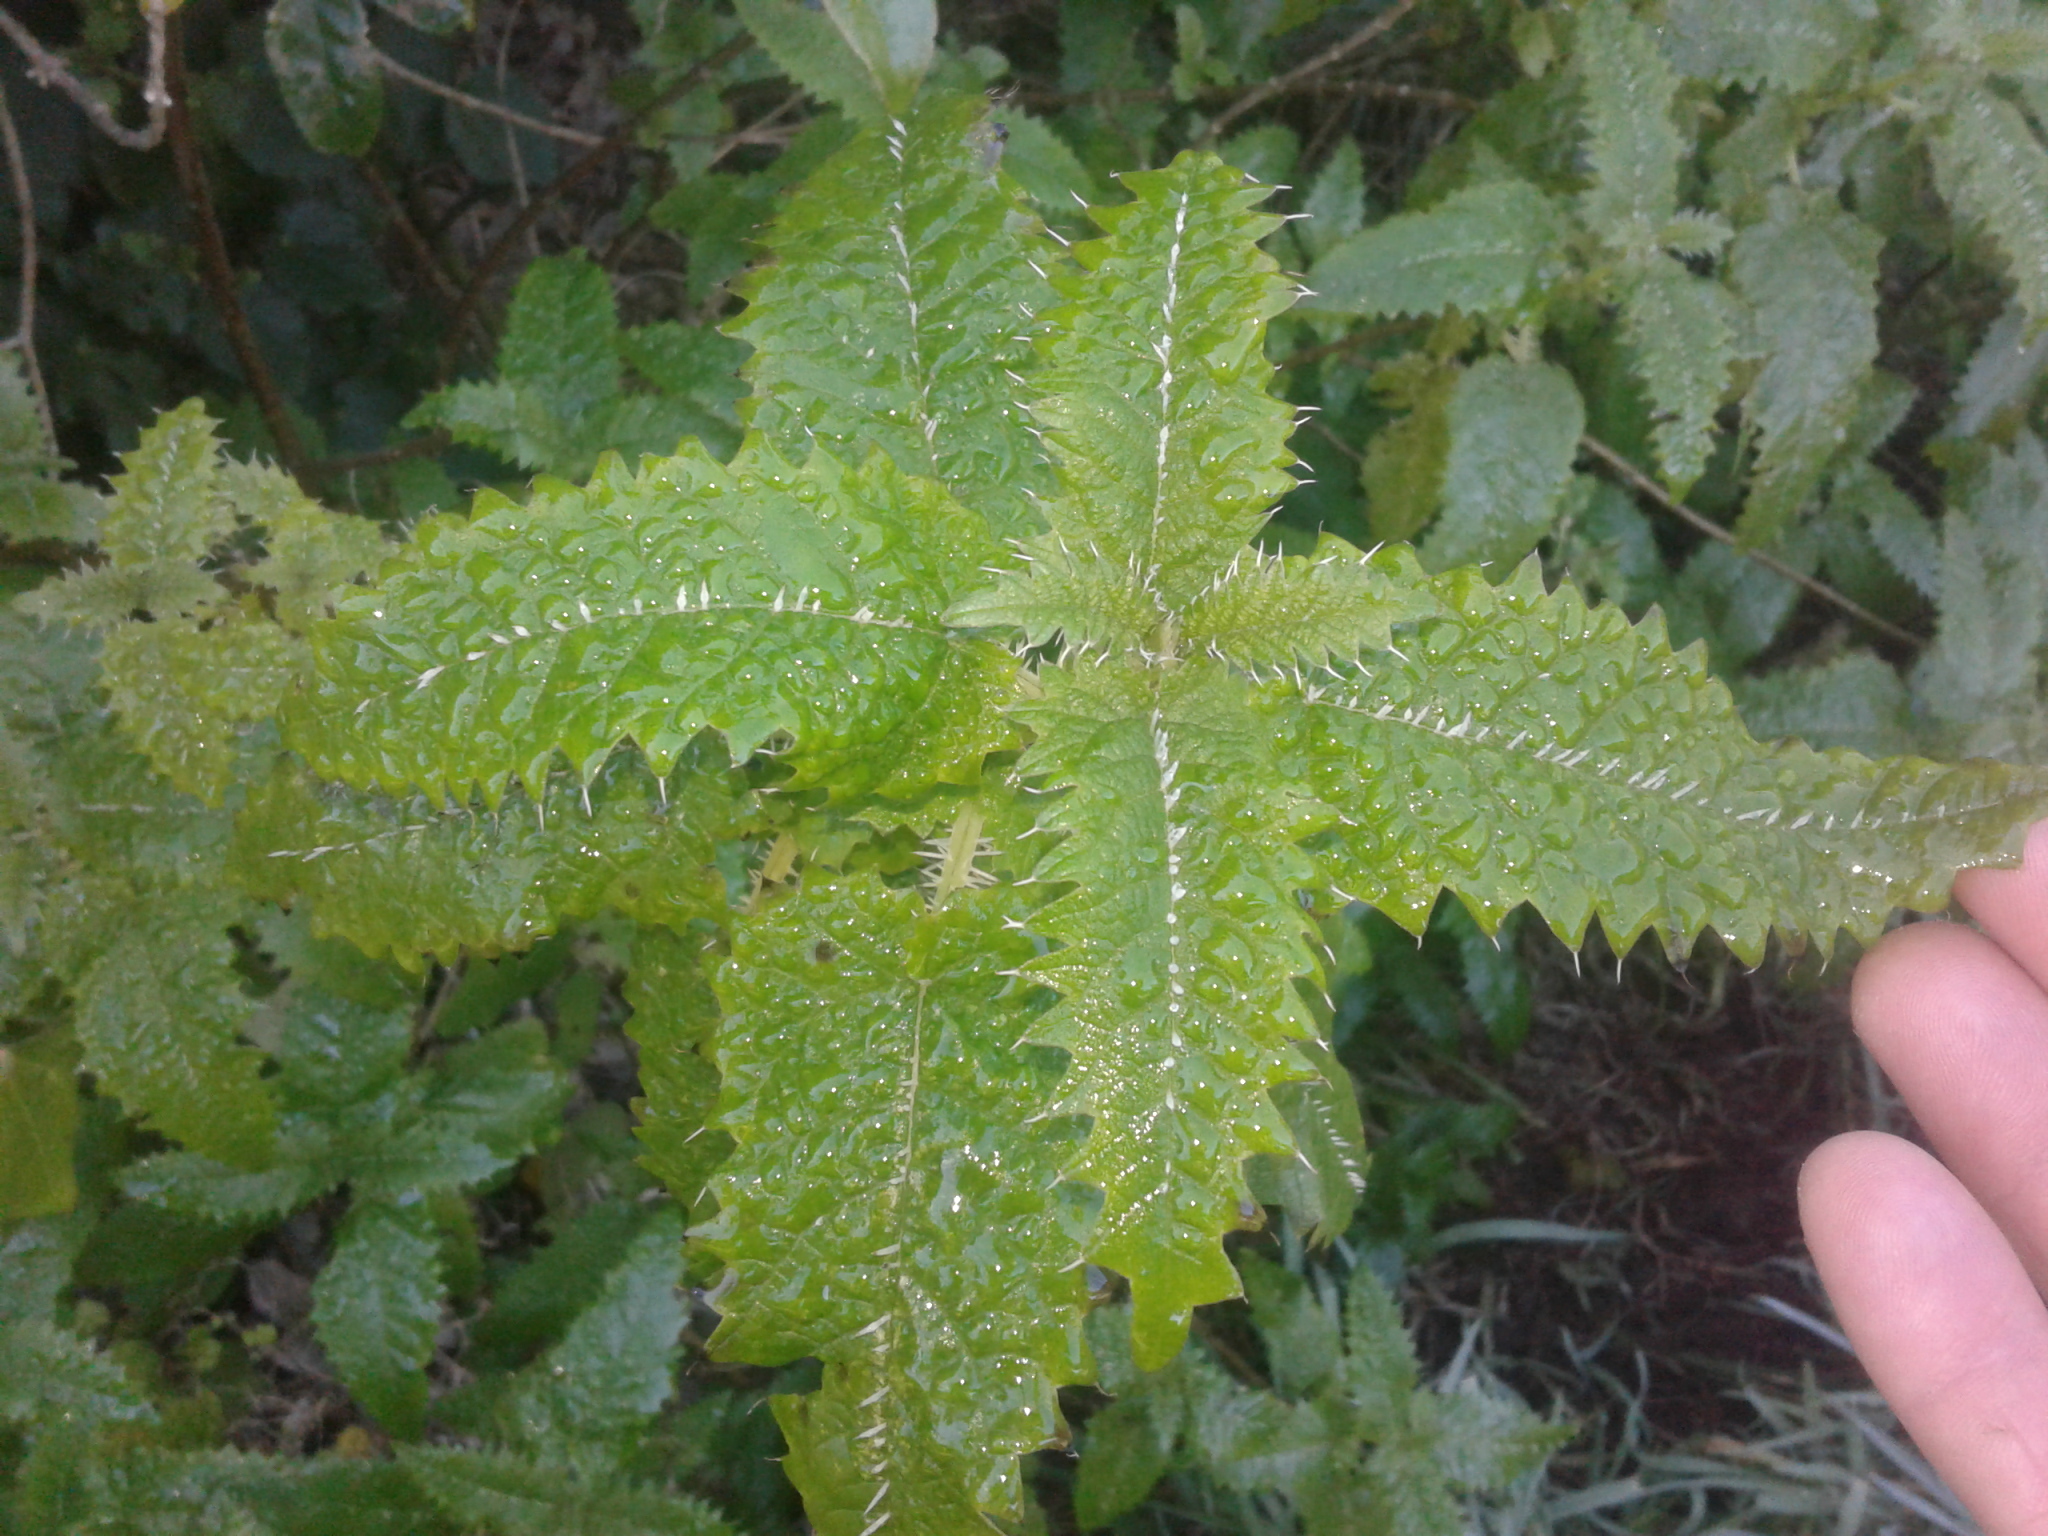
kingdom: Plantae
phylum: Tracheophyta
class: Magnoliopsida
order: Rosales
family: Urticaceae
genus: Urtica
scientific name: Urtica ferox
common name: Tree nettle
